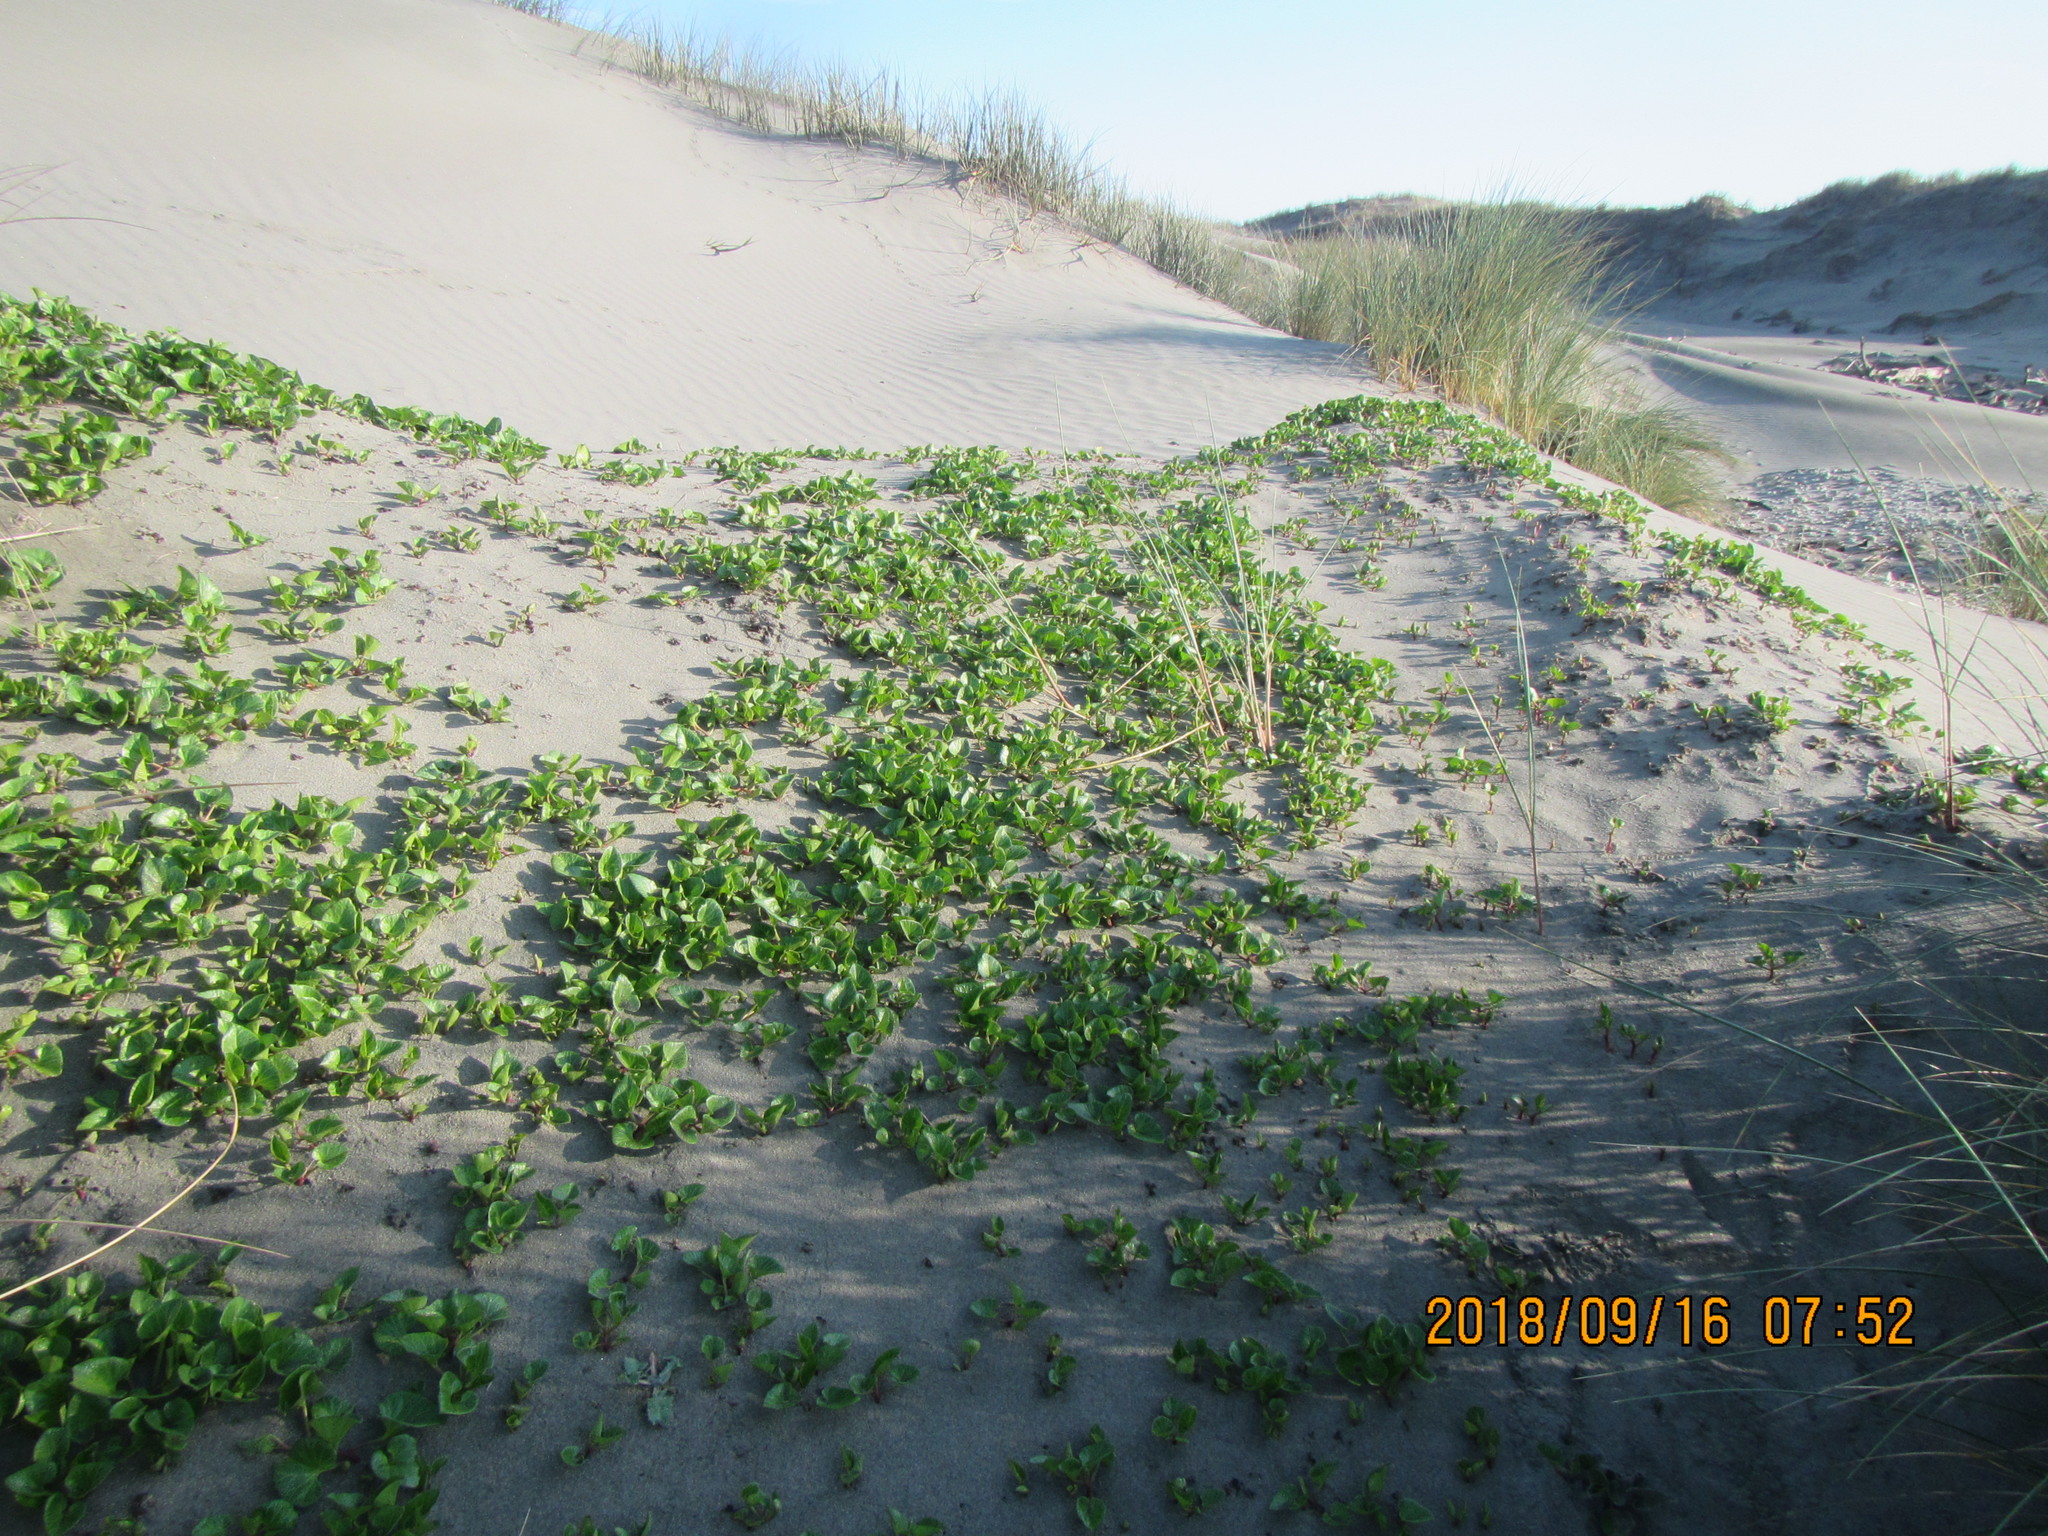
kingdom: Plantae
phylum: Tracheophyta
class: Magnoliopsida
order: Solanales
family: Convolvulaceae
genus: Calystegia
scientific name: Calystegia soldanella
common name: Sea bindweed
